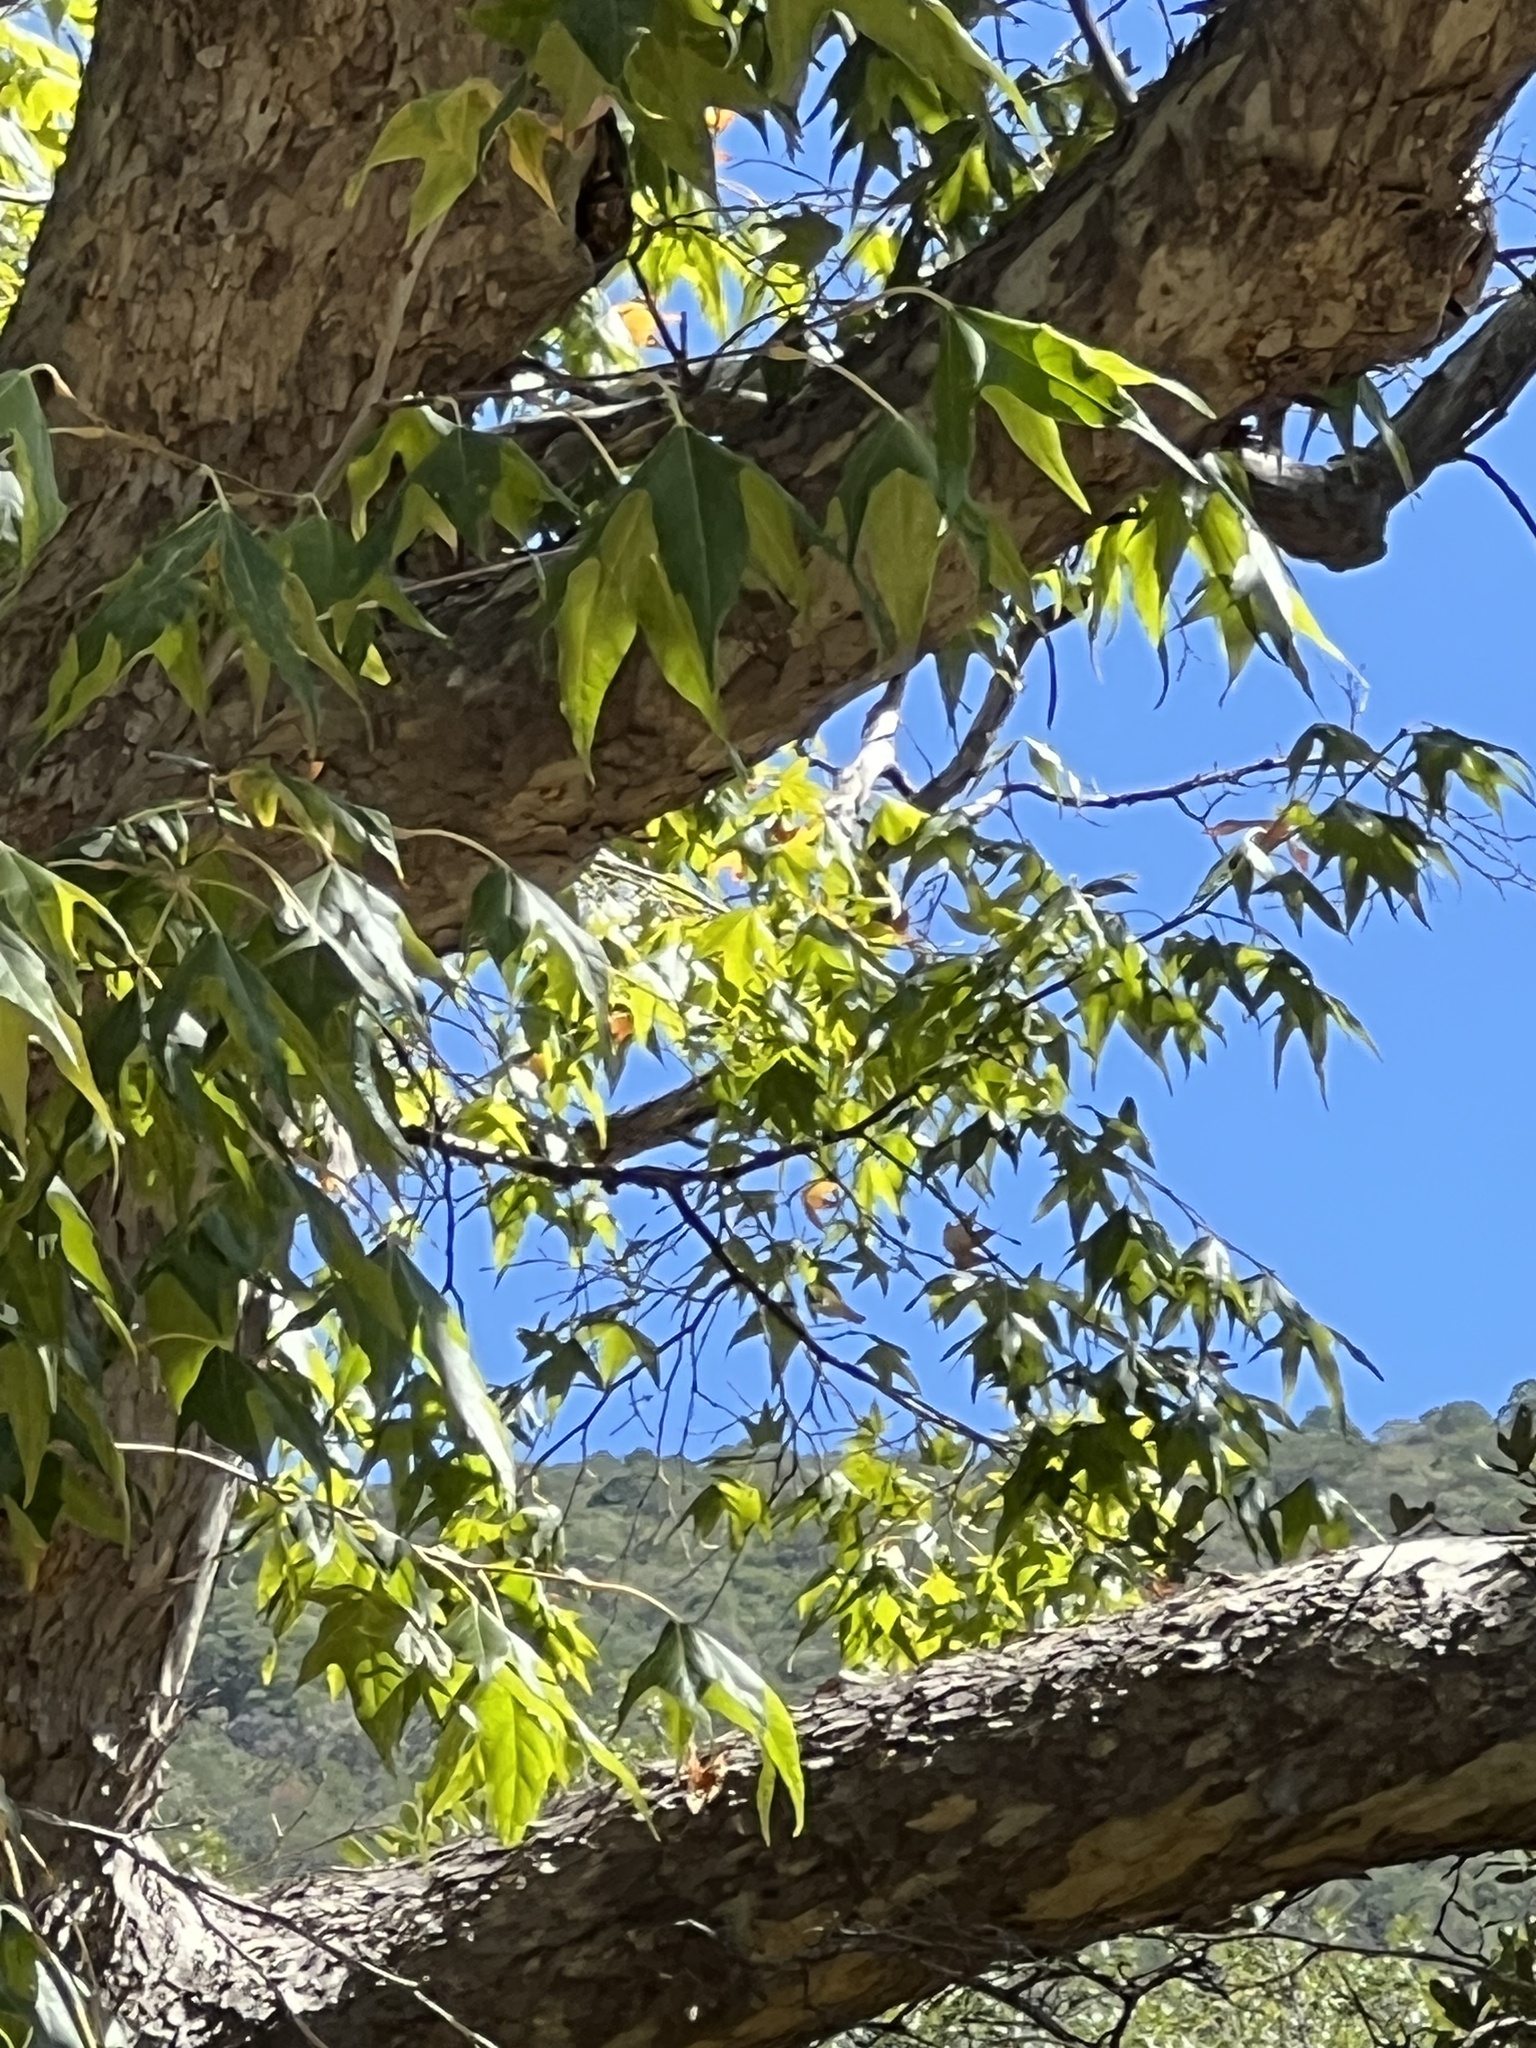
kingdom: Plantae
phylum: Tracheophyta
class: Magnoliopsida
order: Proteales
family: Platanaceae
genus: Platanus
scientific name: Platanus wrightii
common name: Arizona sycamore
